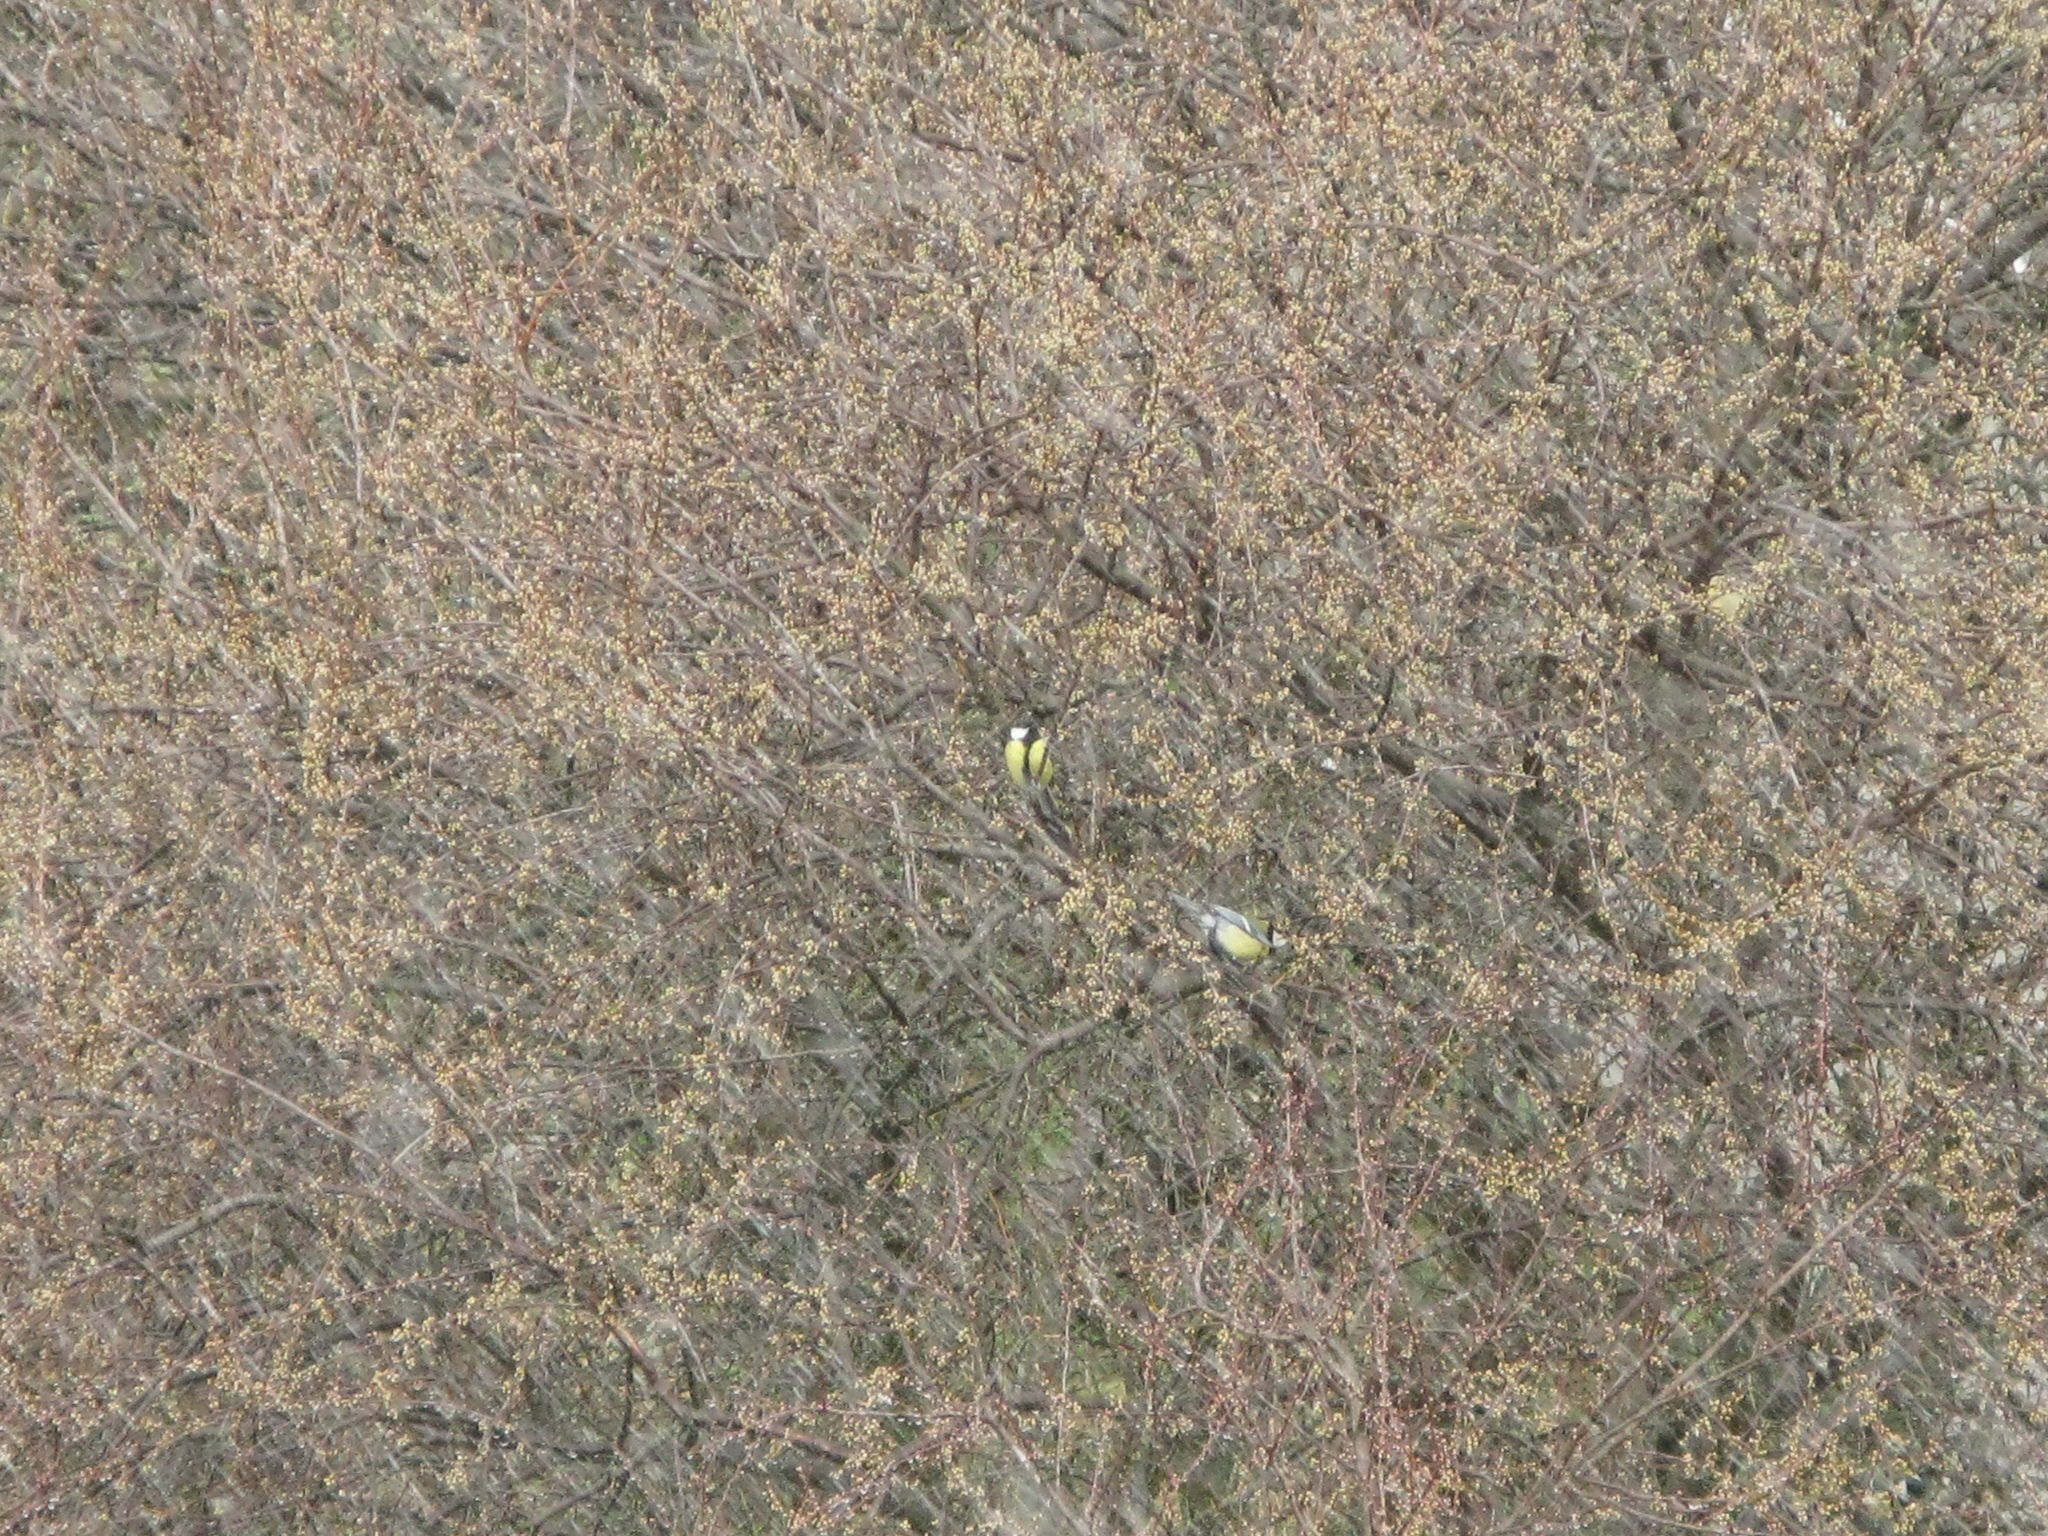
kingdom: Animalia
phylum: Chordata
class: Aves
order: Passeriformes
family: Paridae
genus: Parus
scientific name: Parus major
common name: Great tit
